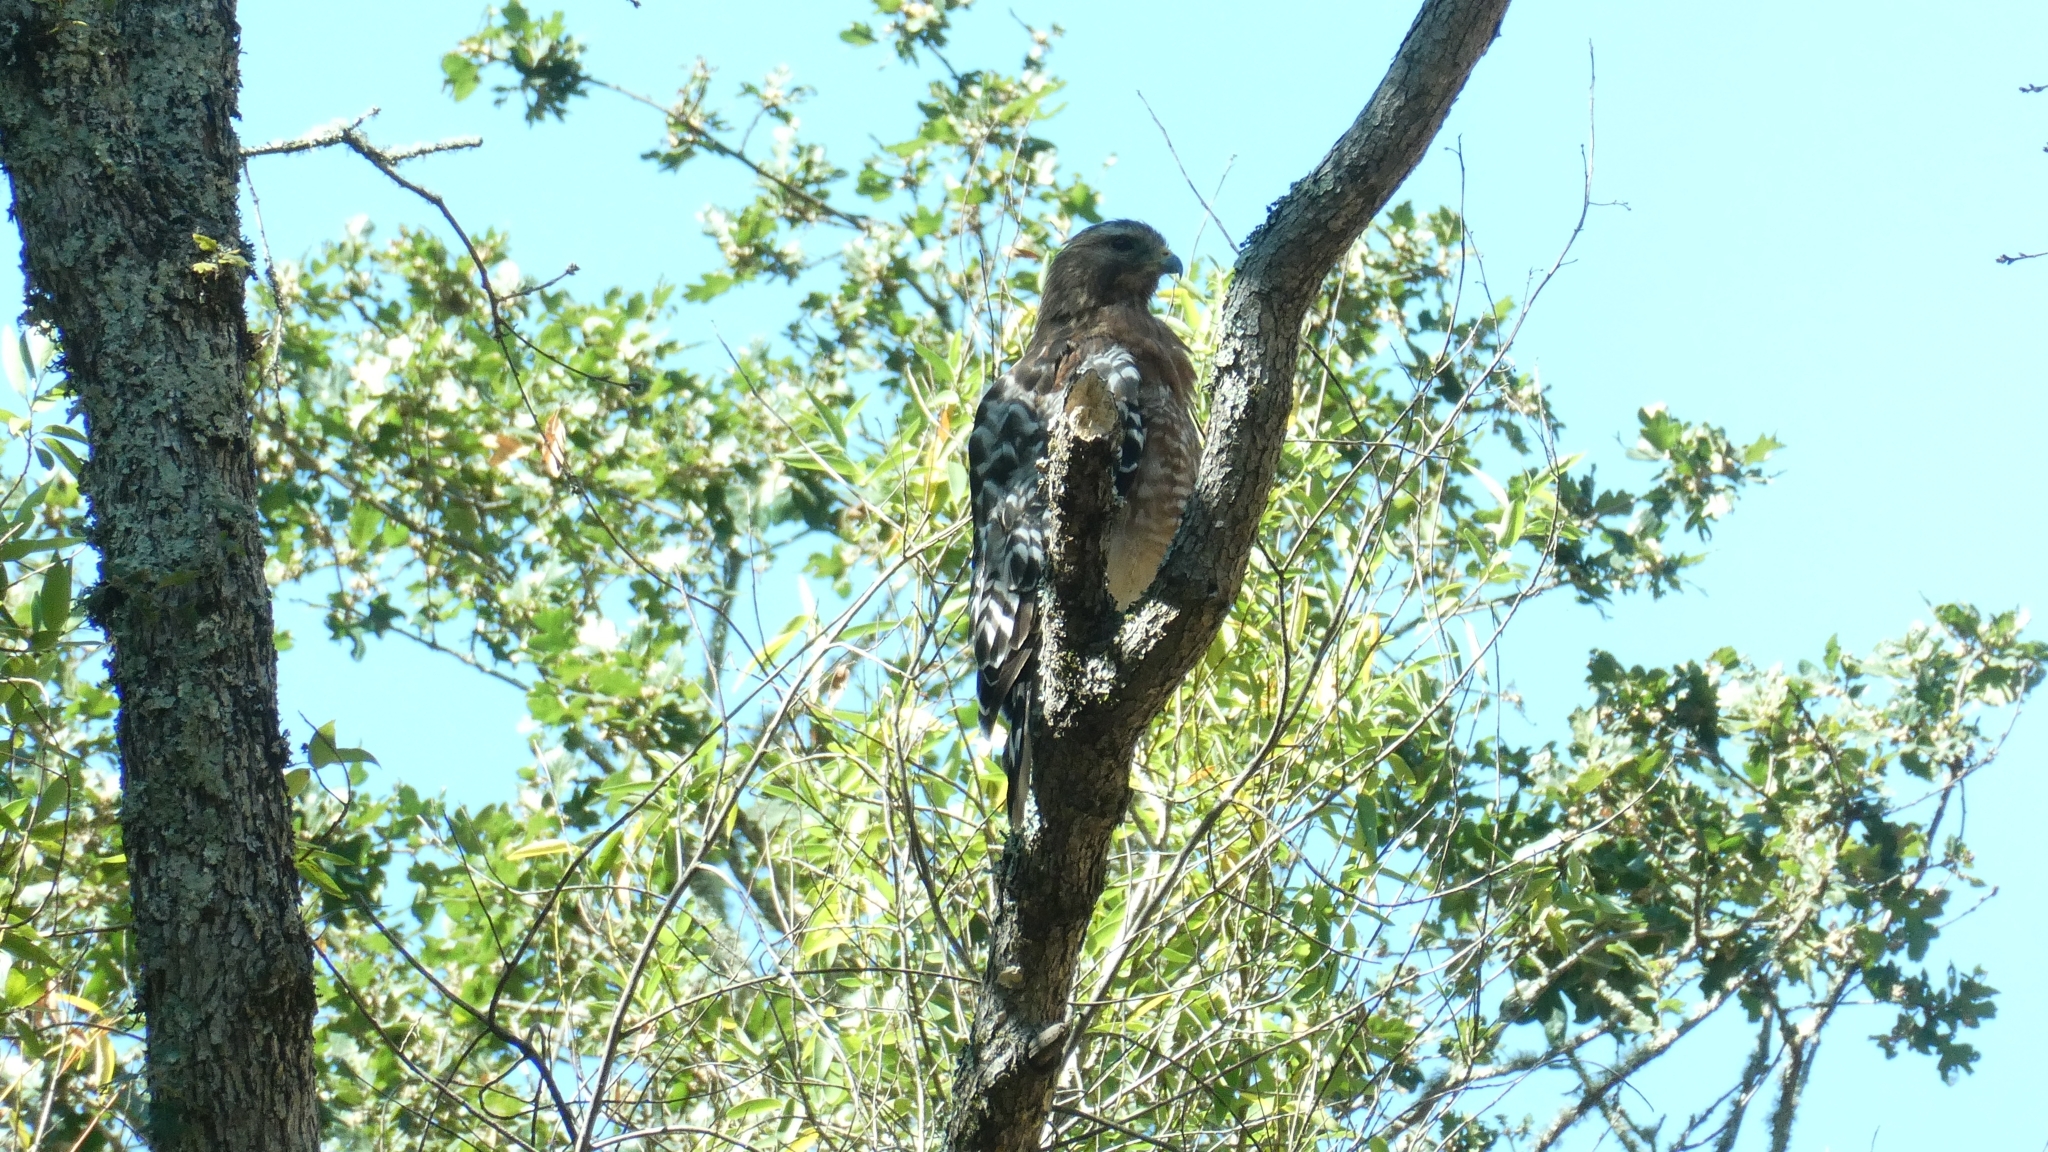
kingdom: Animalia
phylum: Chordata
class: Aves
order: Accipitriformes
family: Accipitridae
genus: Buteo
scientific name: Buteo lineatus
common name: Red-shouldered hawk
